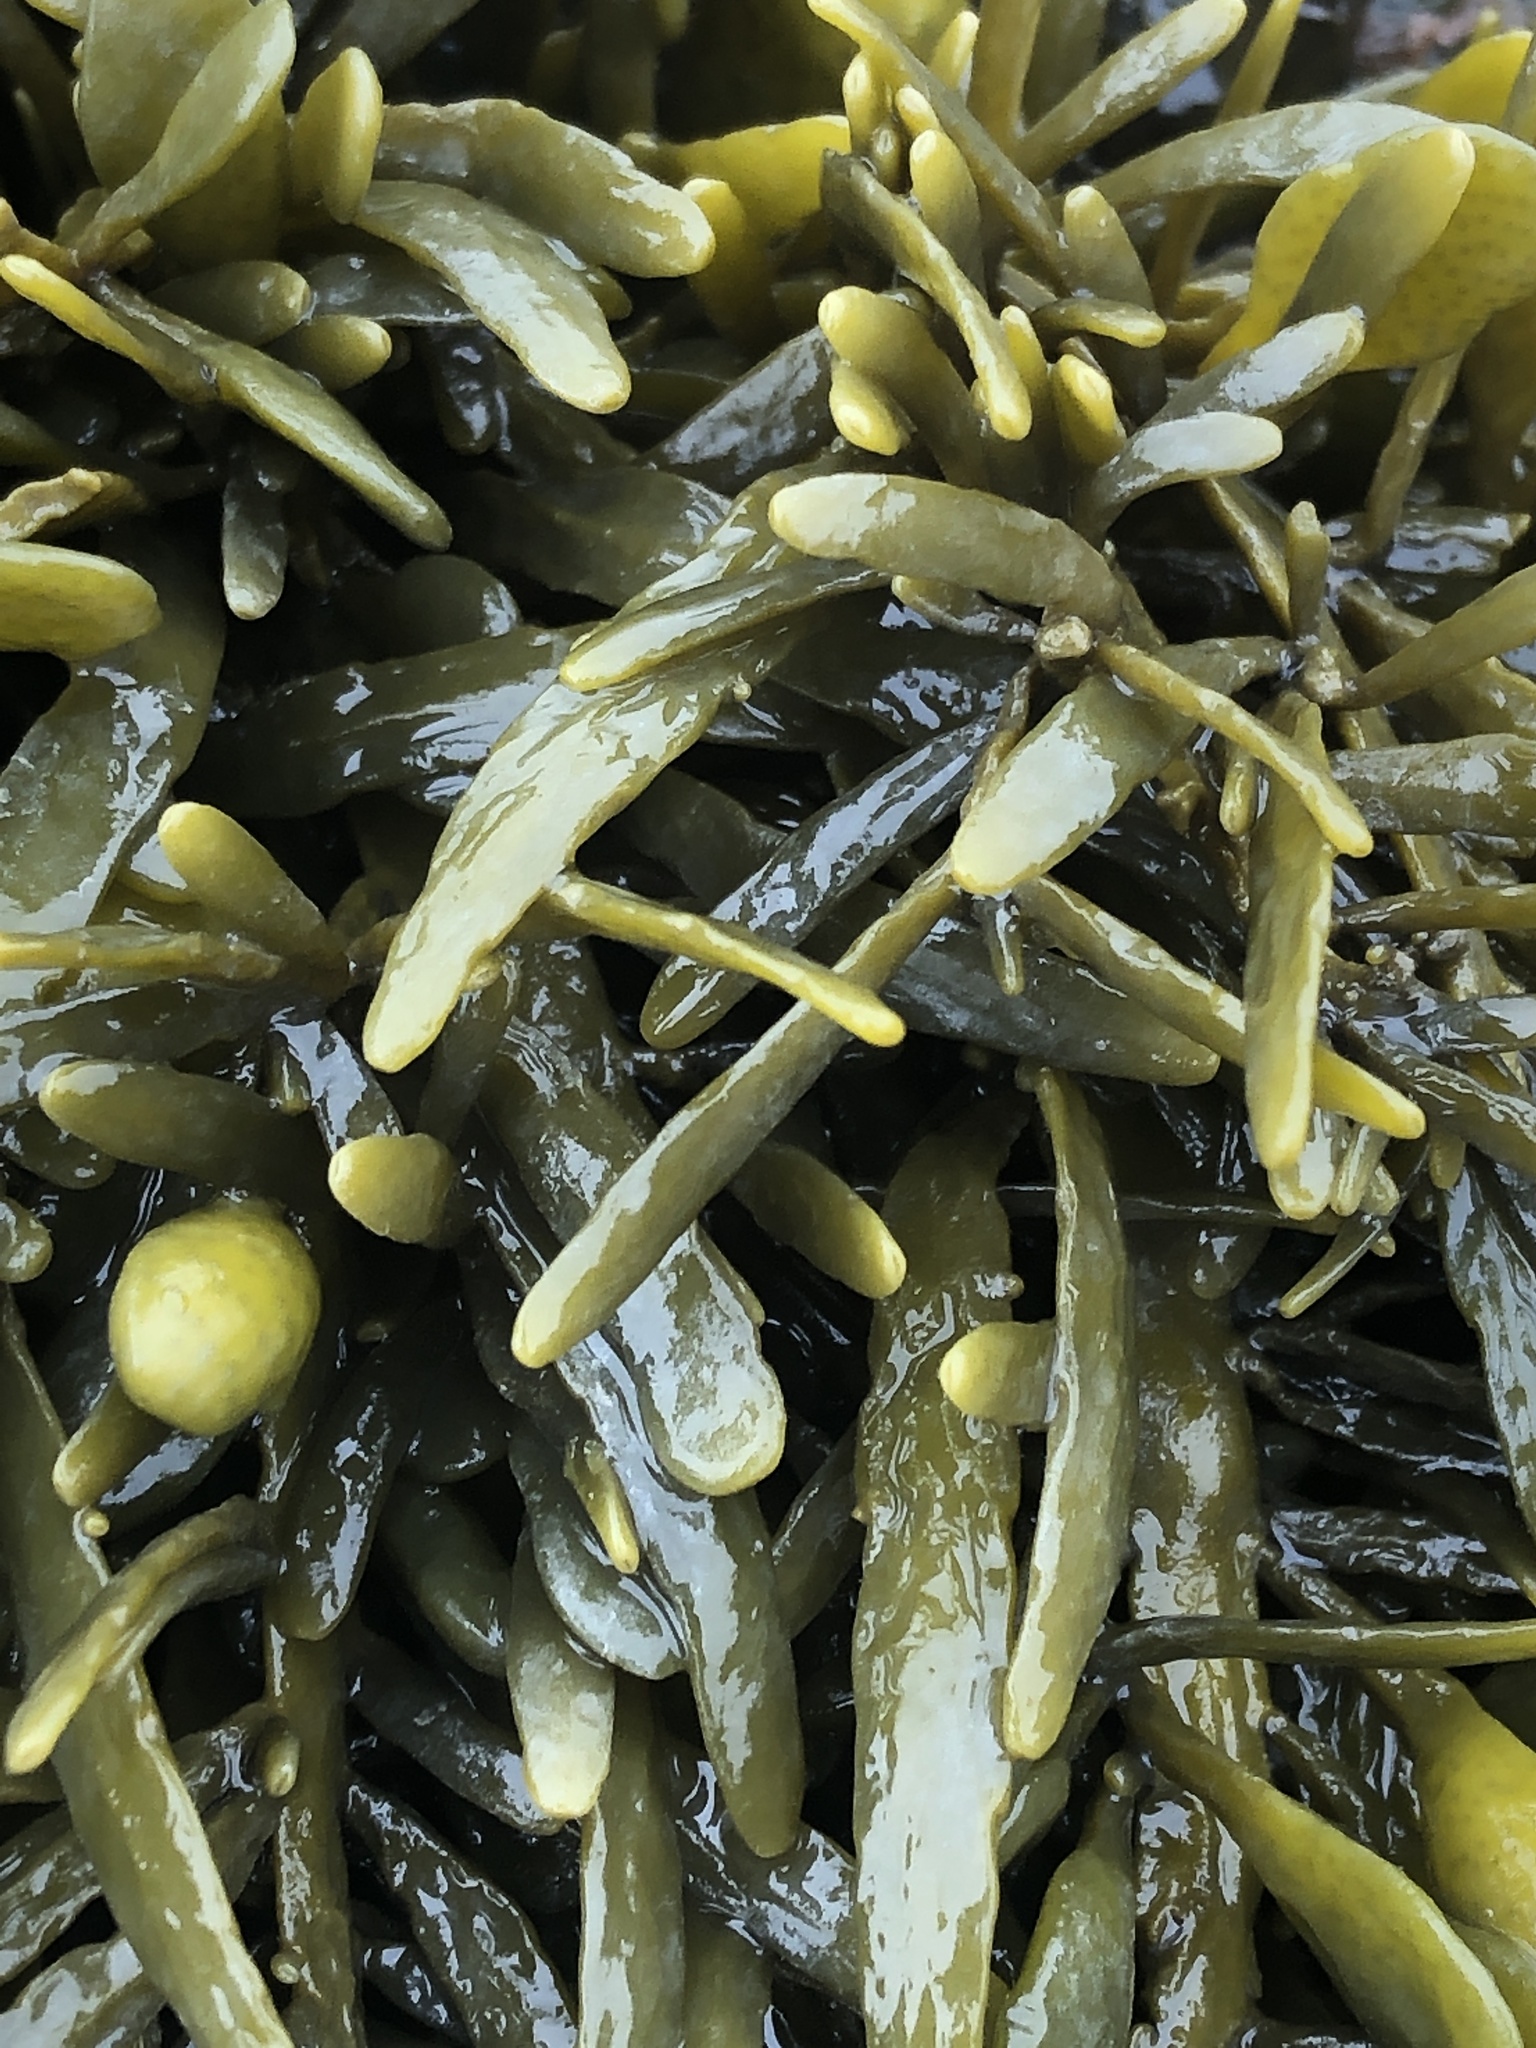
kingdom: Chromista
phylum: Ochrophyta
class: Phaeophyceae
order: Fucales
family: Fucaceae
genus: Ascophyllum
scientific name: Ascophyllum nodosum
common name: Knotted wrack
